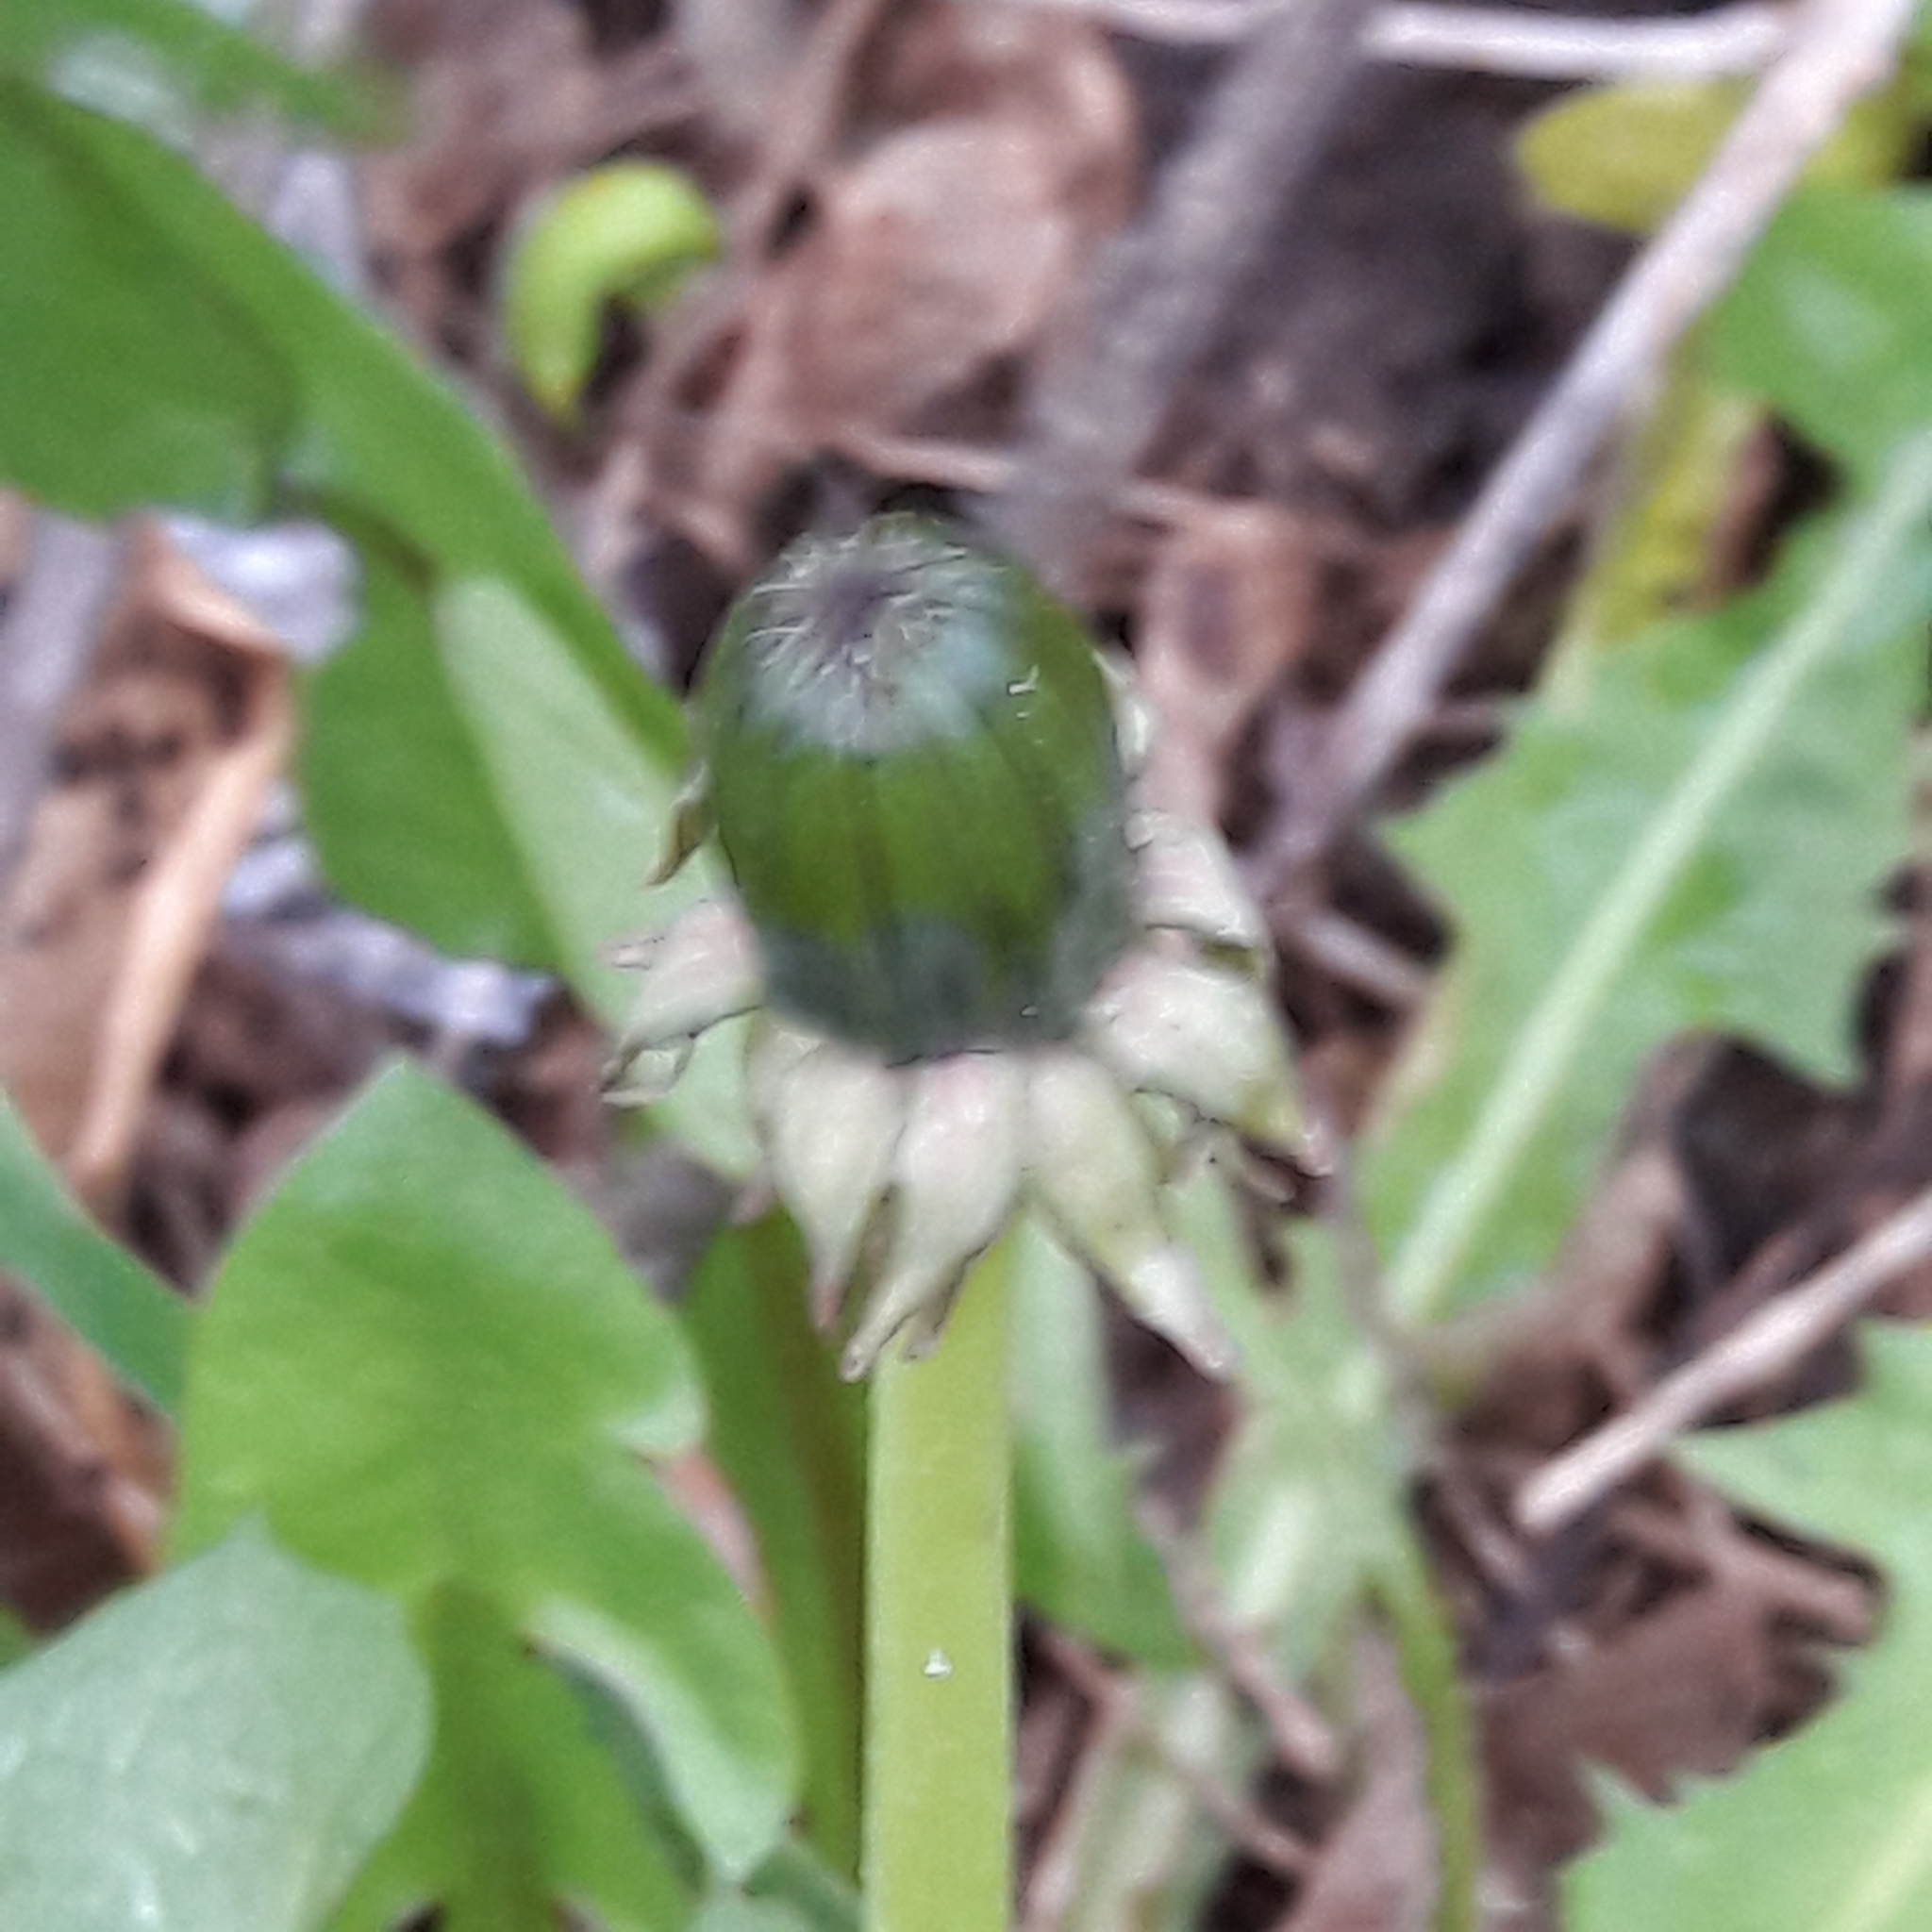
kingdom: Plantae
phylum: Tracheophyta
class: Magnoliopsida
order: Asterales
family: Asteraceae
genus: Taraxacum
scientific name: Taraxacum officinale
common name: Common dandelion
